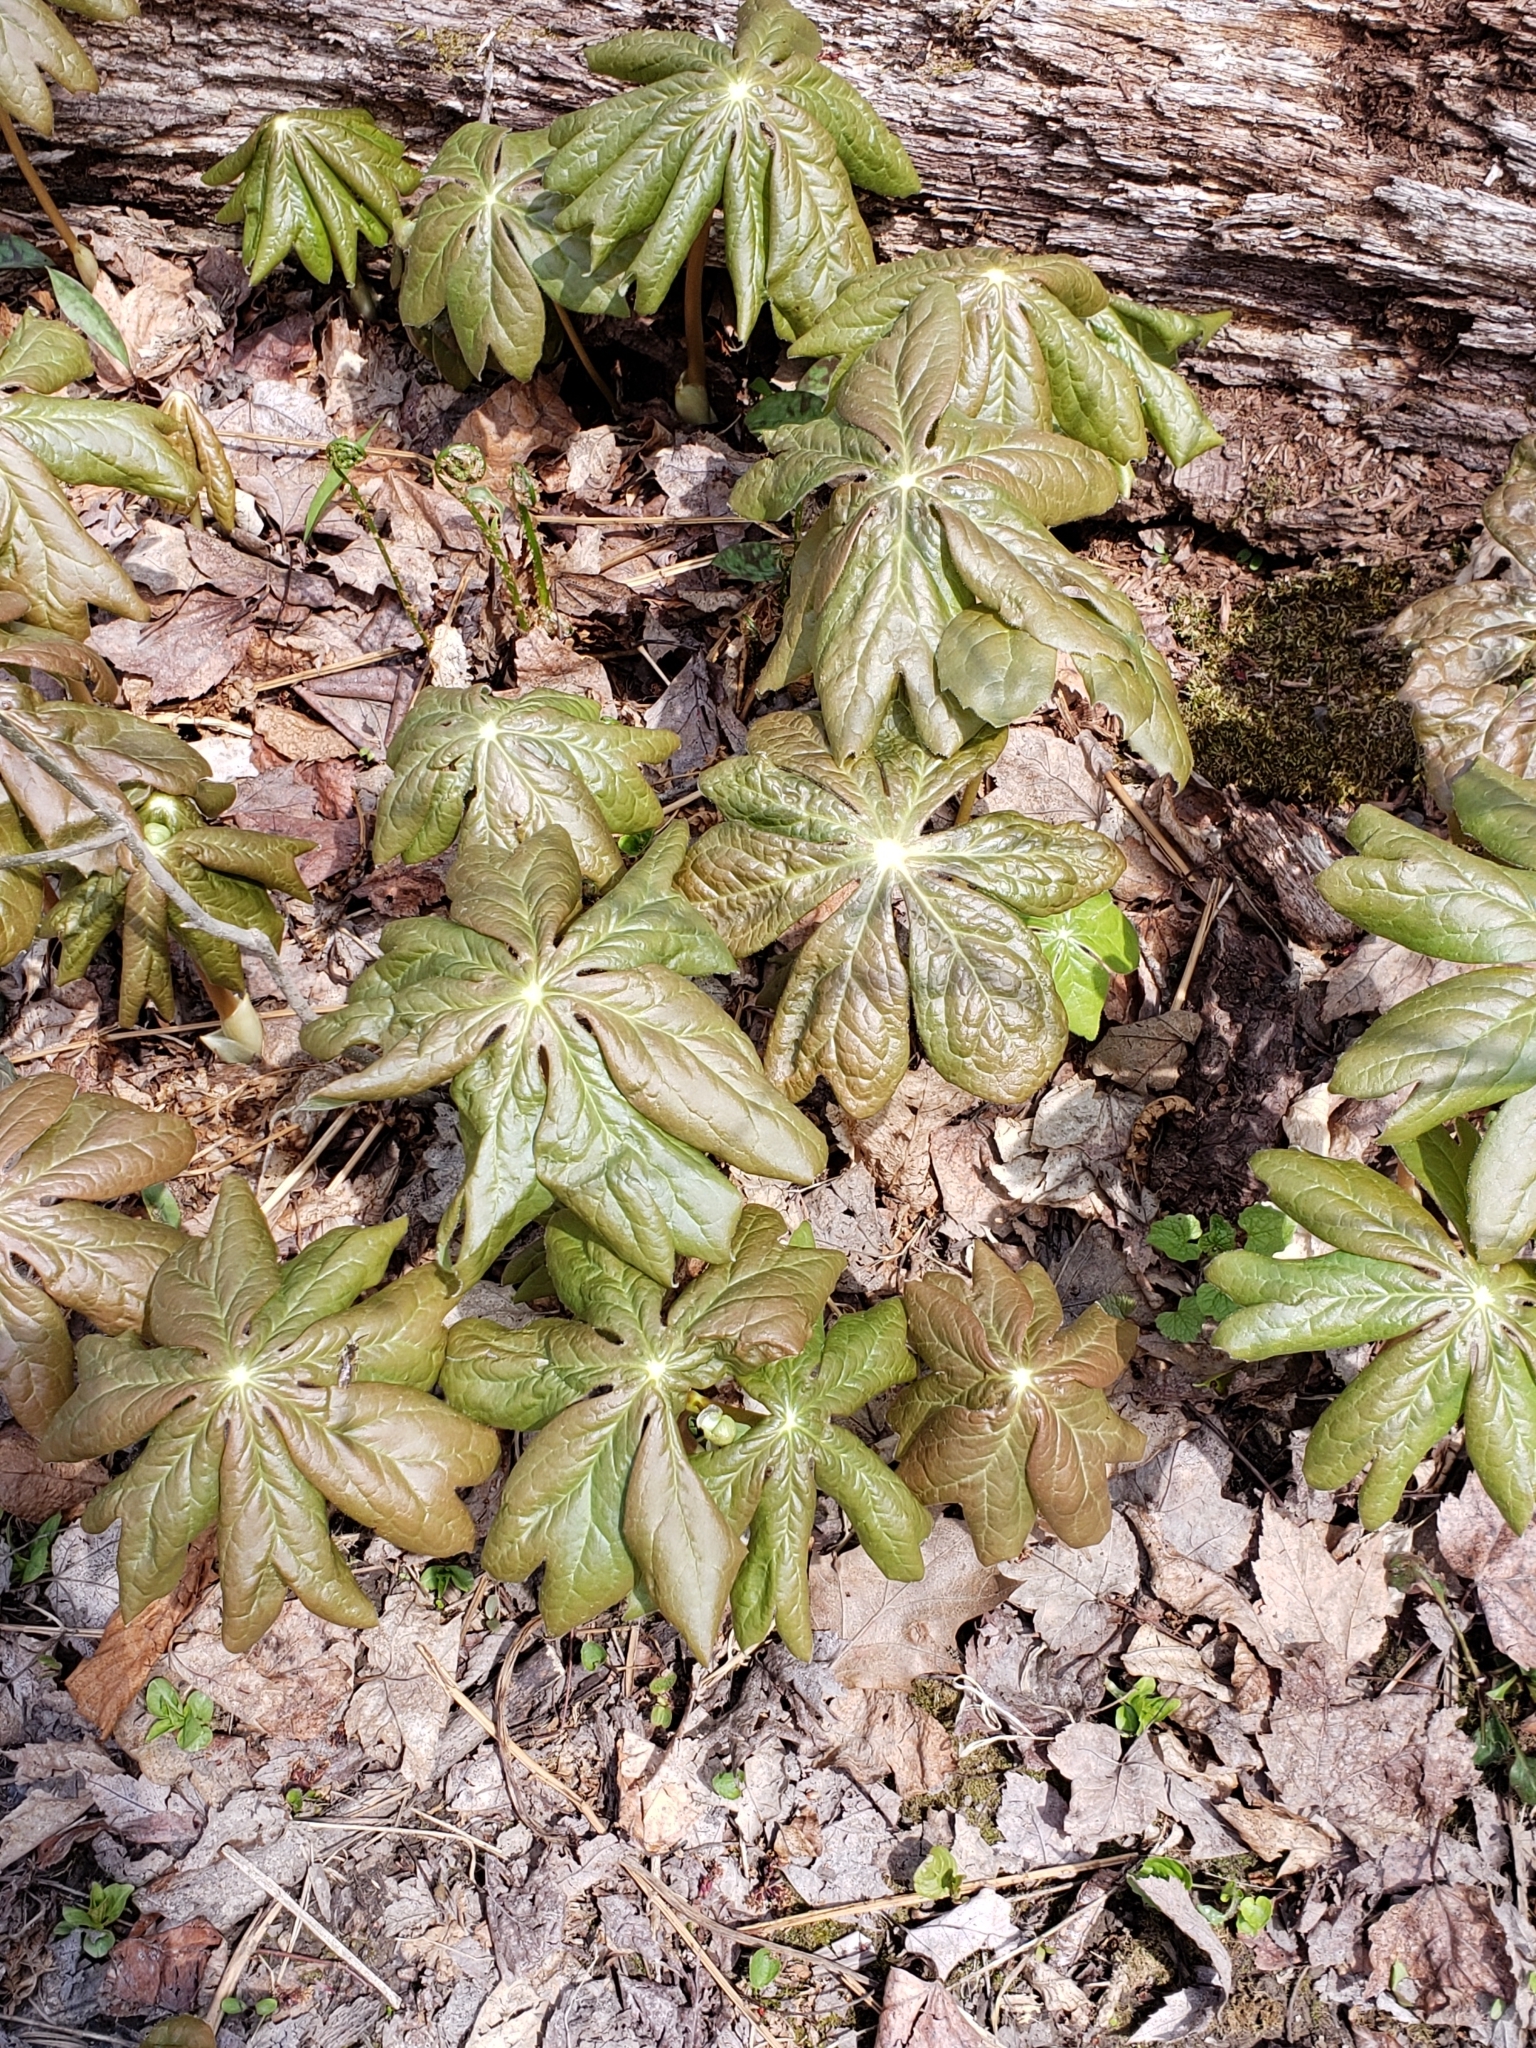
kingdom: Plantae
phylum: Tracheophyta
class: Magnoliopsida
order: Ranunculales
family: Berberidaceae
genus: Podophyllum
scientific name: Podophyllum peltatum
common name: Wild mandrake
